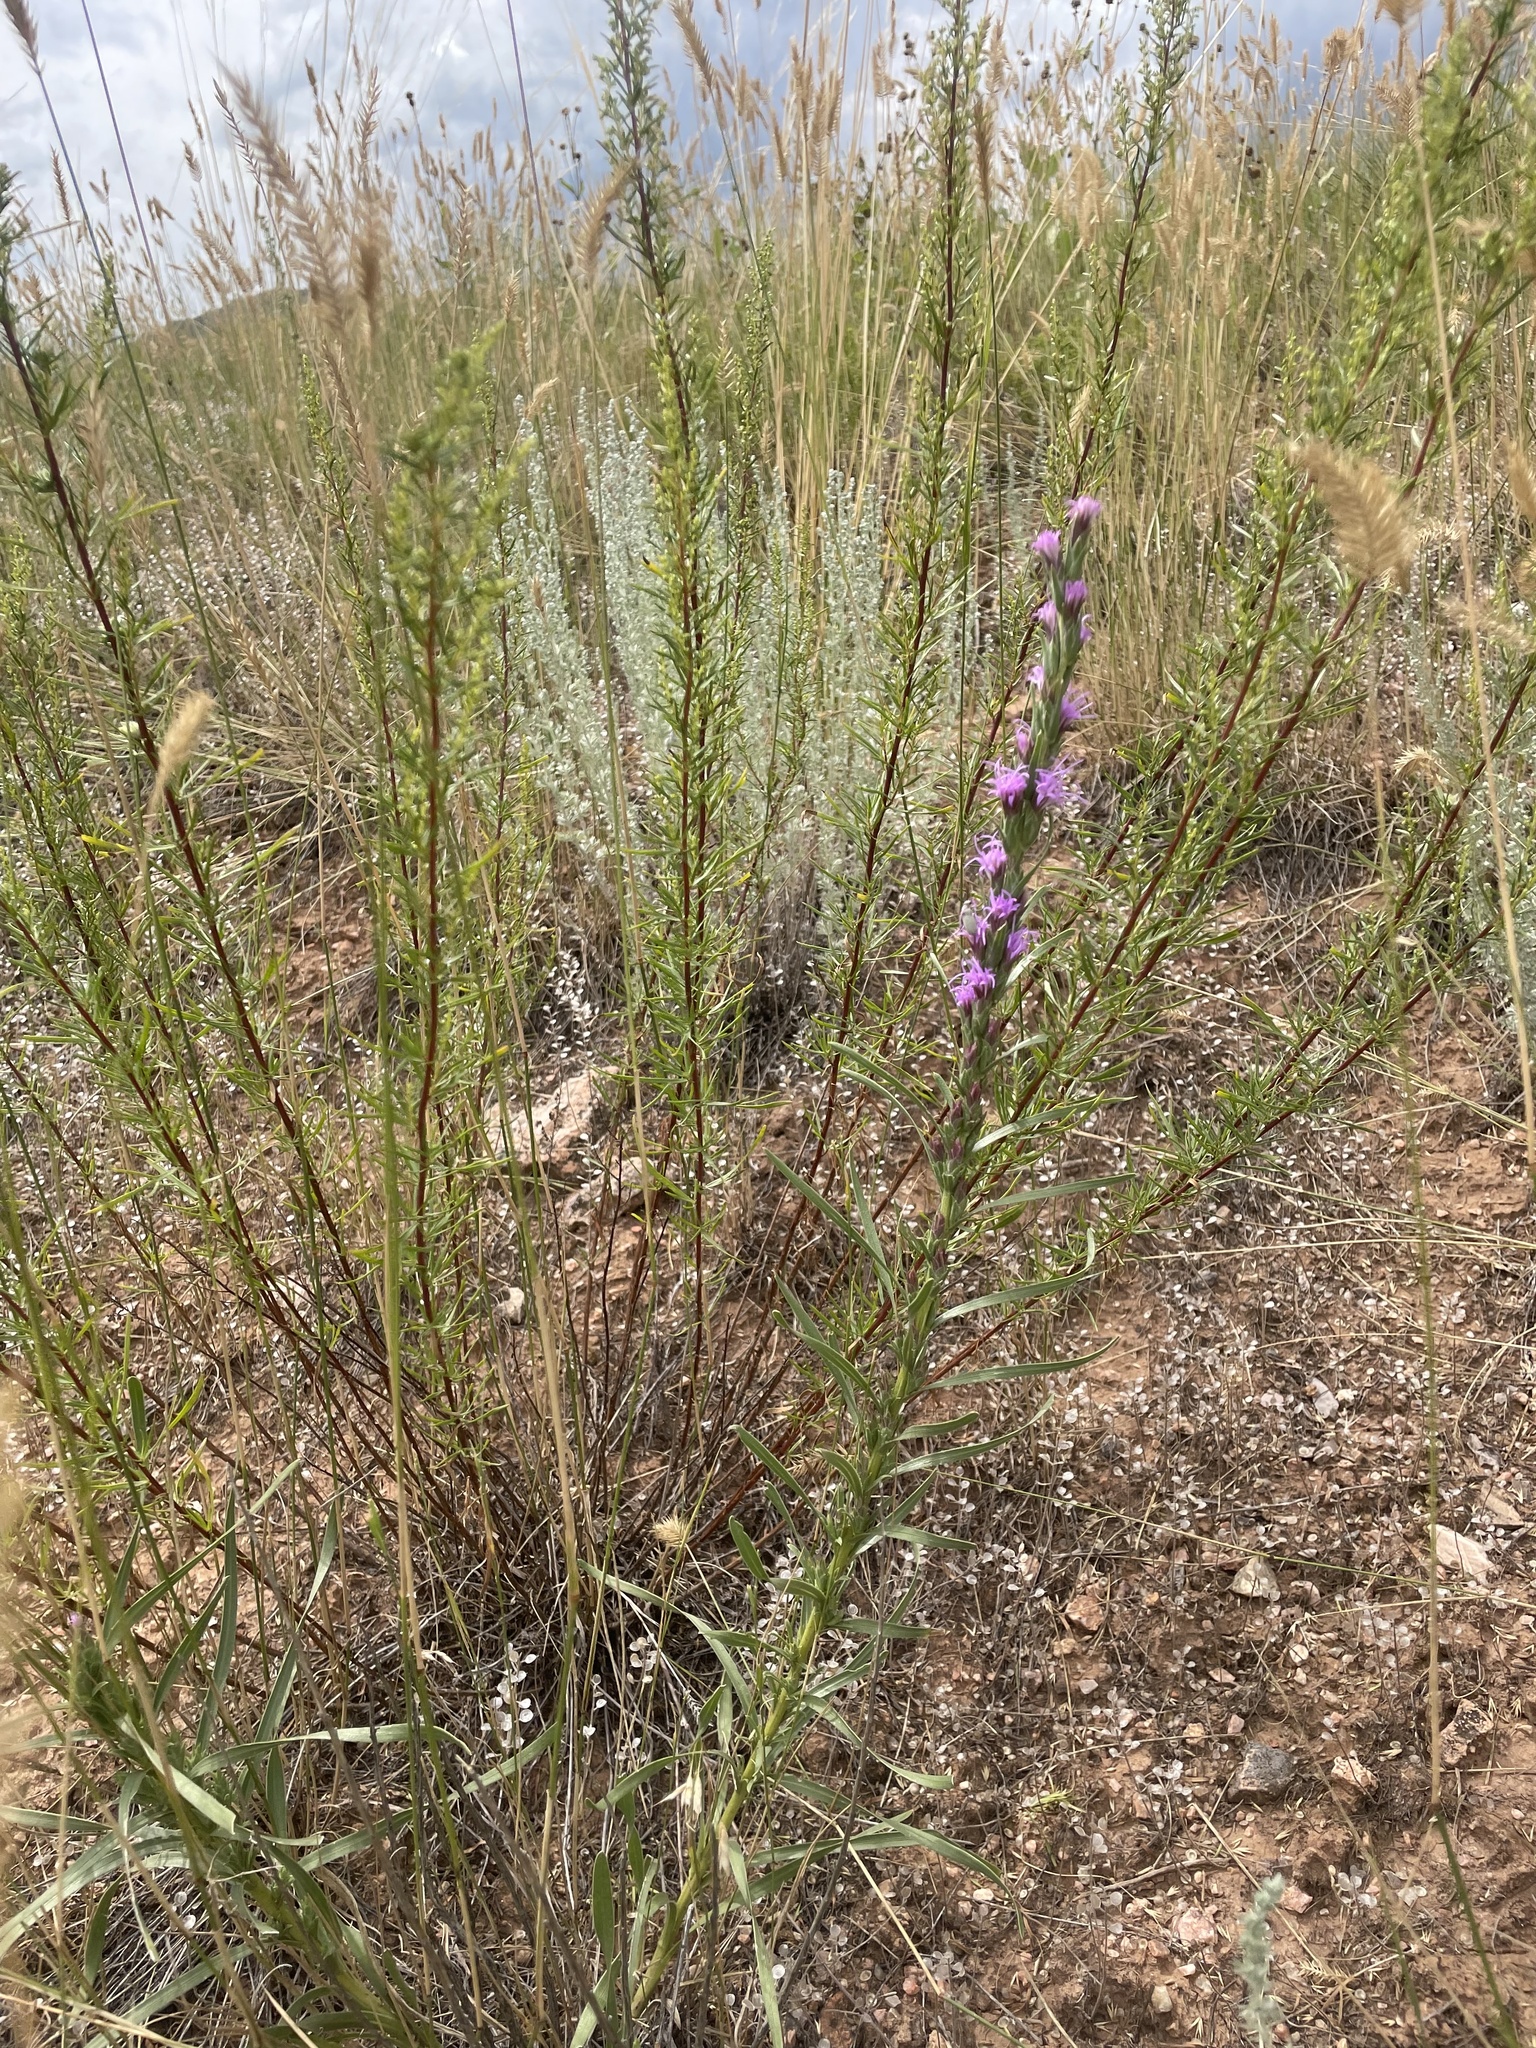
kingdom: Plantae
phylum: Tracheophyta
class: Magnoliopsida
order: Asterales
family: Asteraceae
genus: Liatris
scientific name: Liatris punctata
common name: Dotted gayfeather
